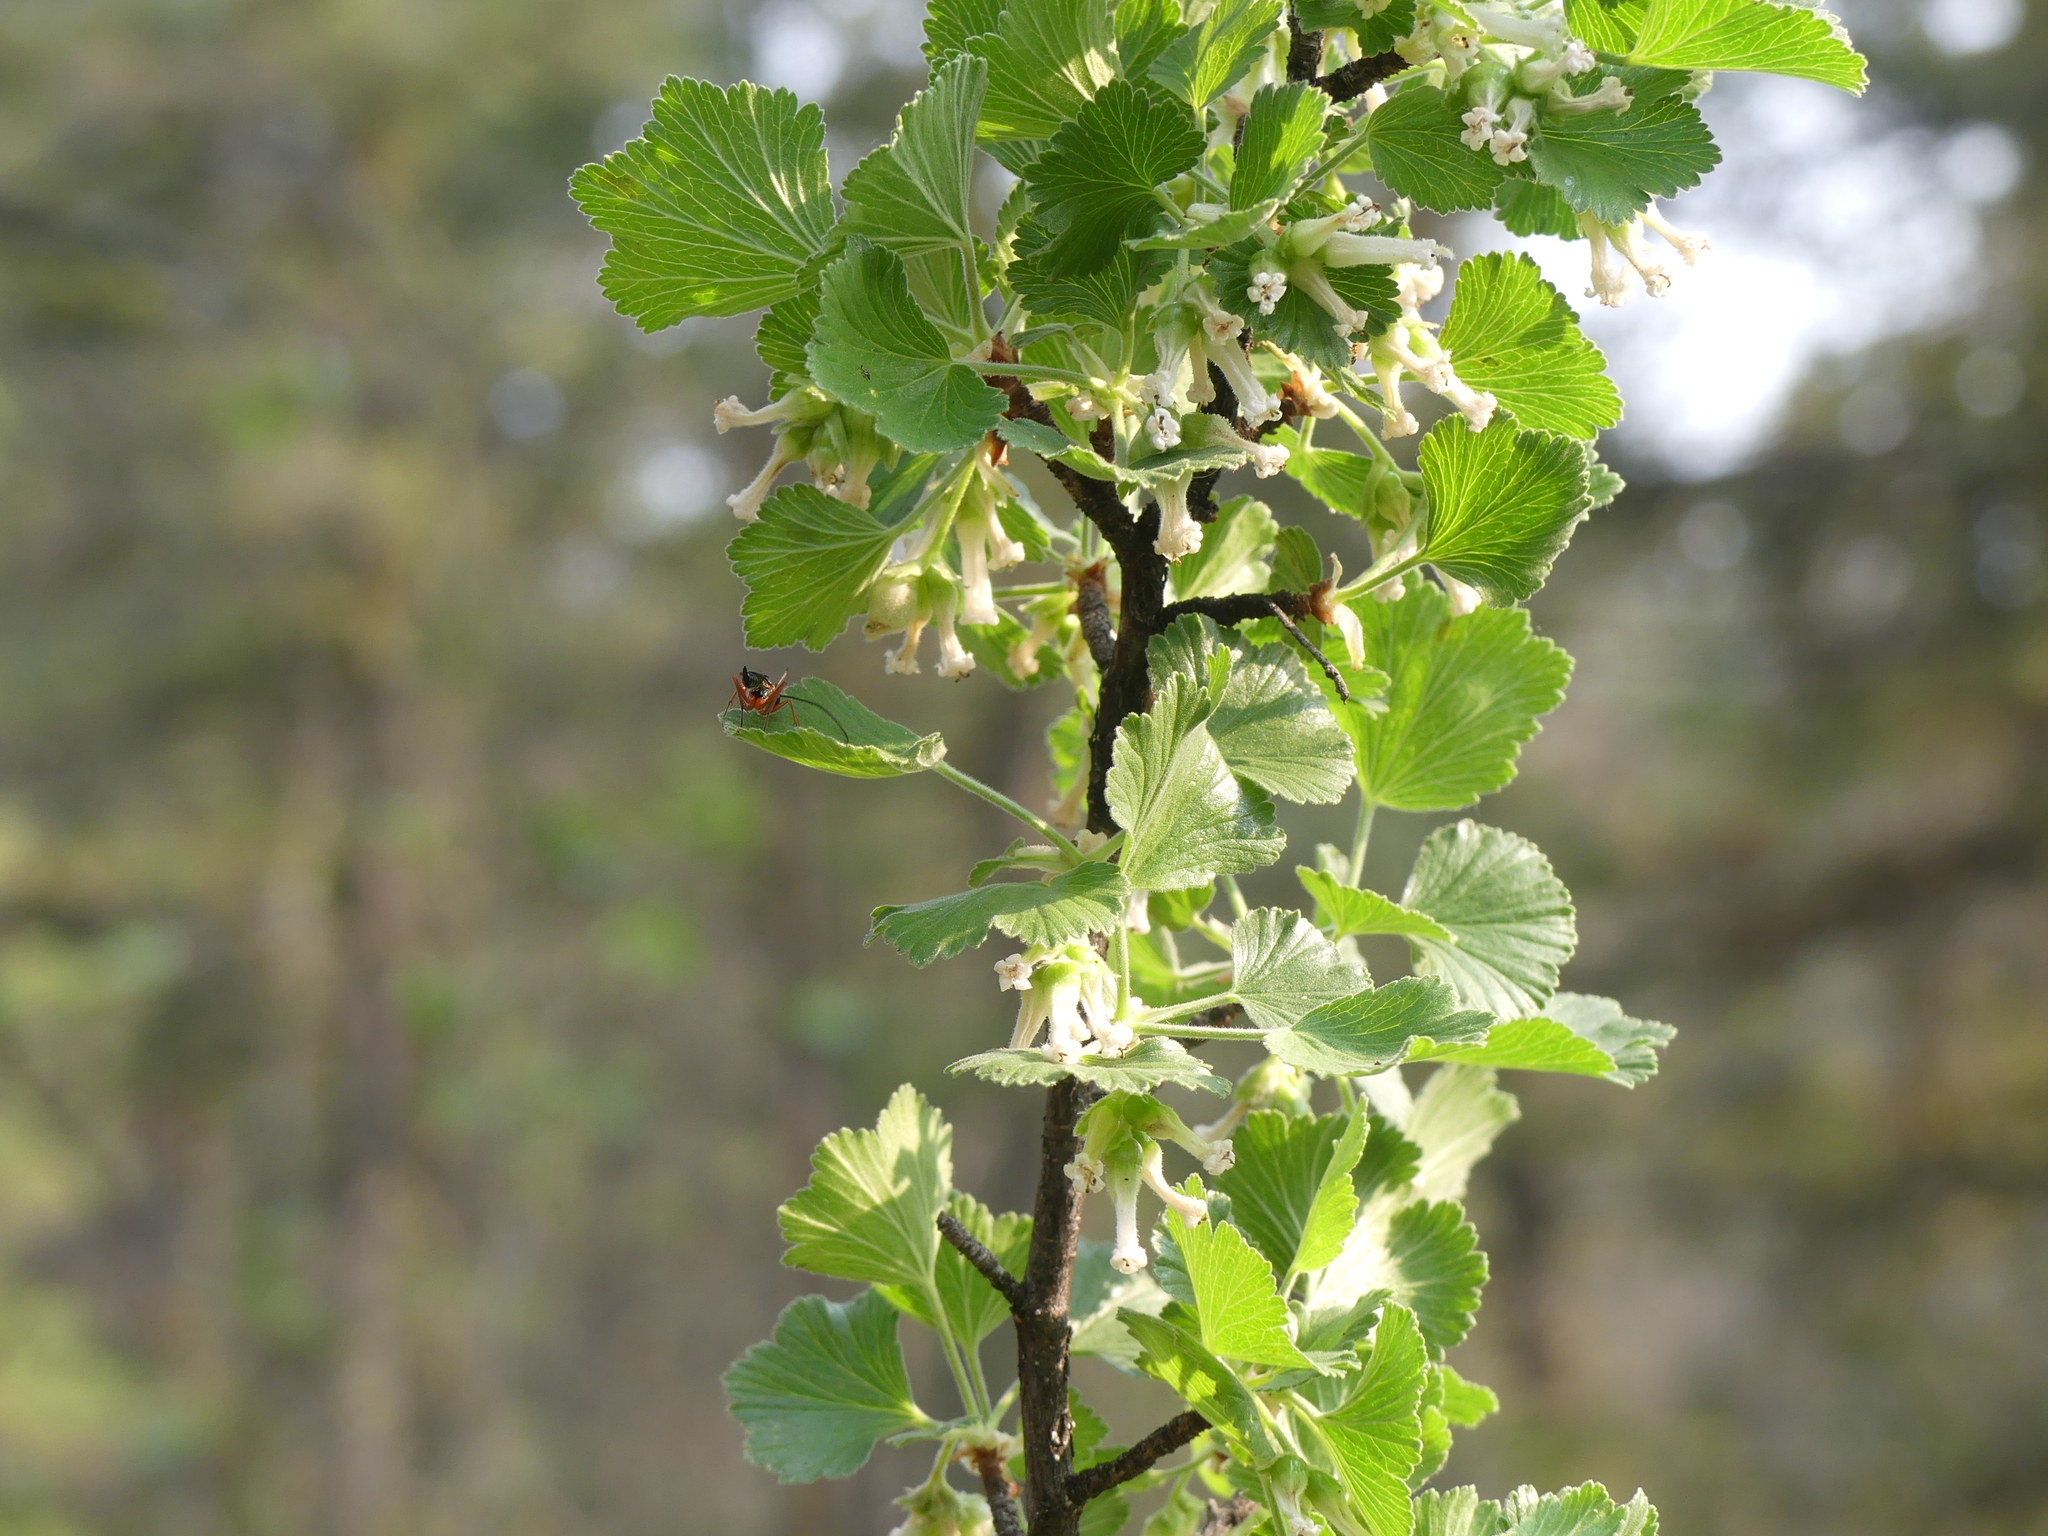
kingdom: Plantae
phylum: Tracheophyta
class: Magnoliopsida
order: Saxifragales
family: Grossulariaceae
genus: Ribes
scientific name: Ribes cereum
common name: Wax currant
